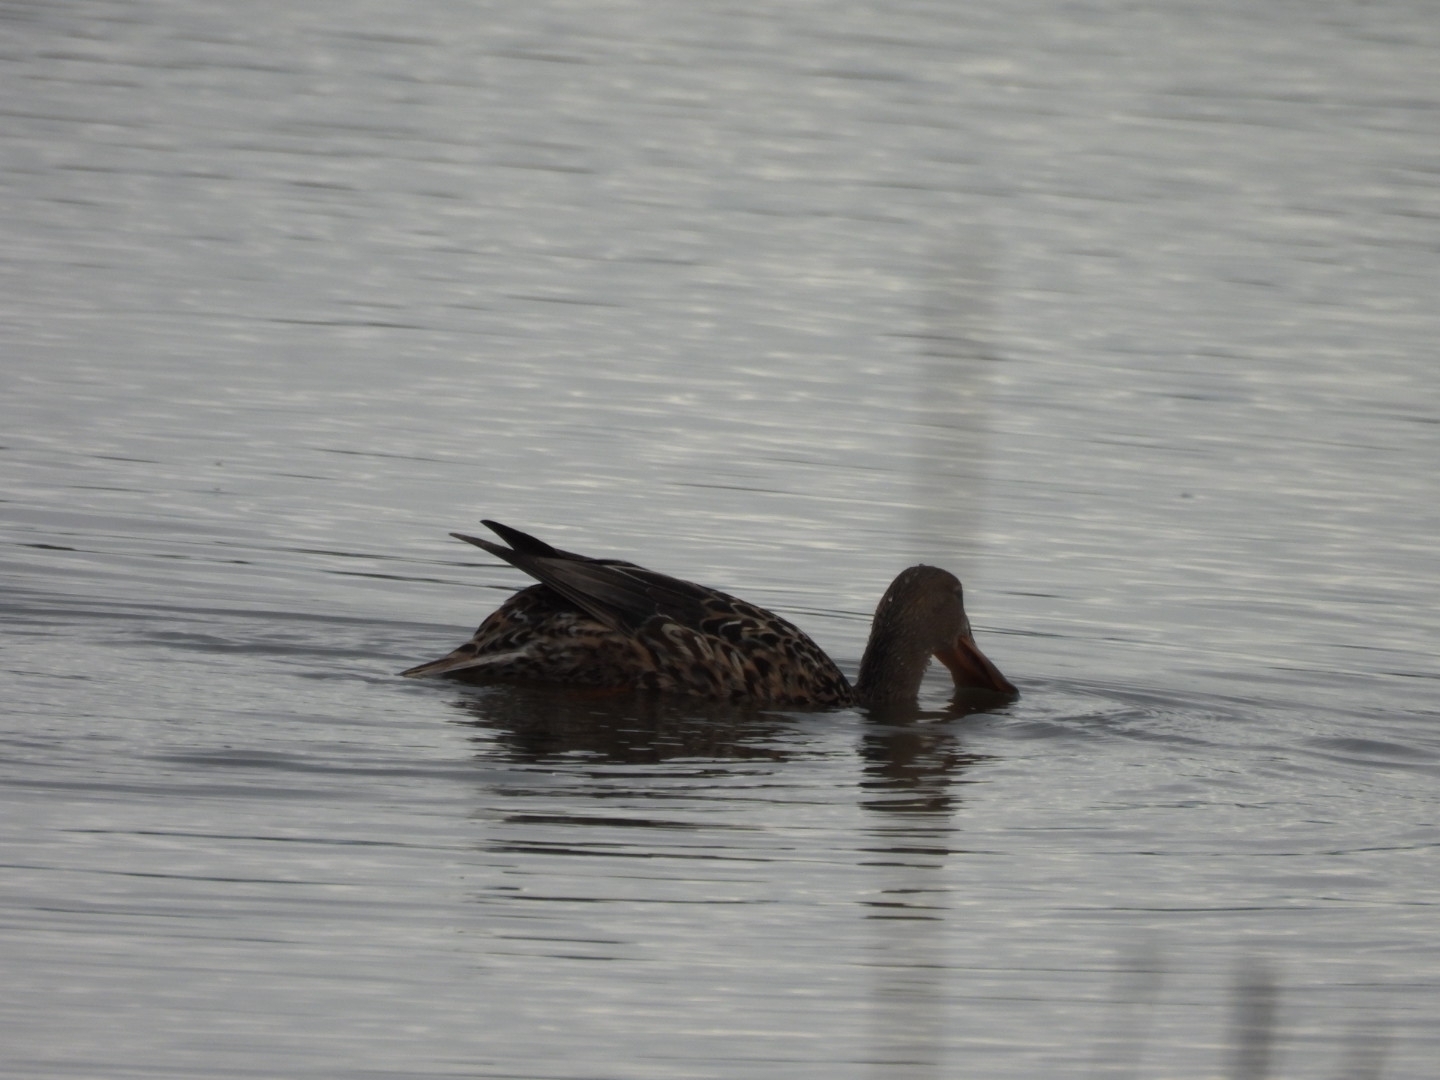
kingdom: Animalia
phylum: Chordata
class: Aves
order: Anseriformes
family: Anatidae
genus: Spatula
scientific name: Spatula clypeata
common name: Northern shoveler
